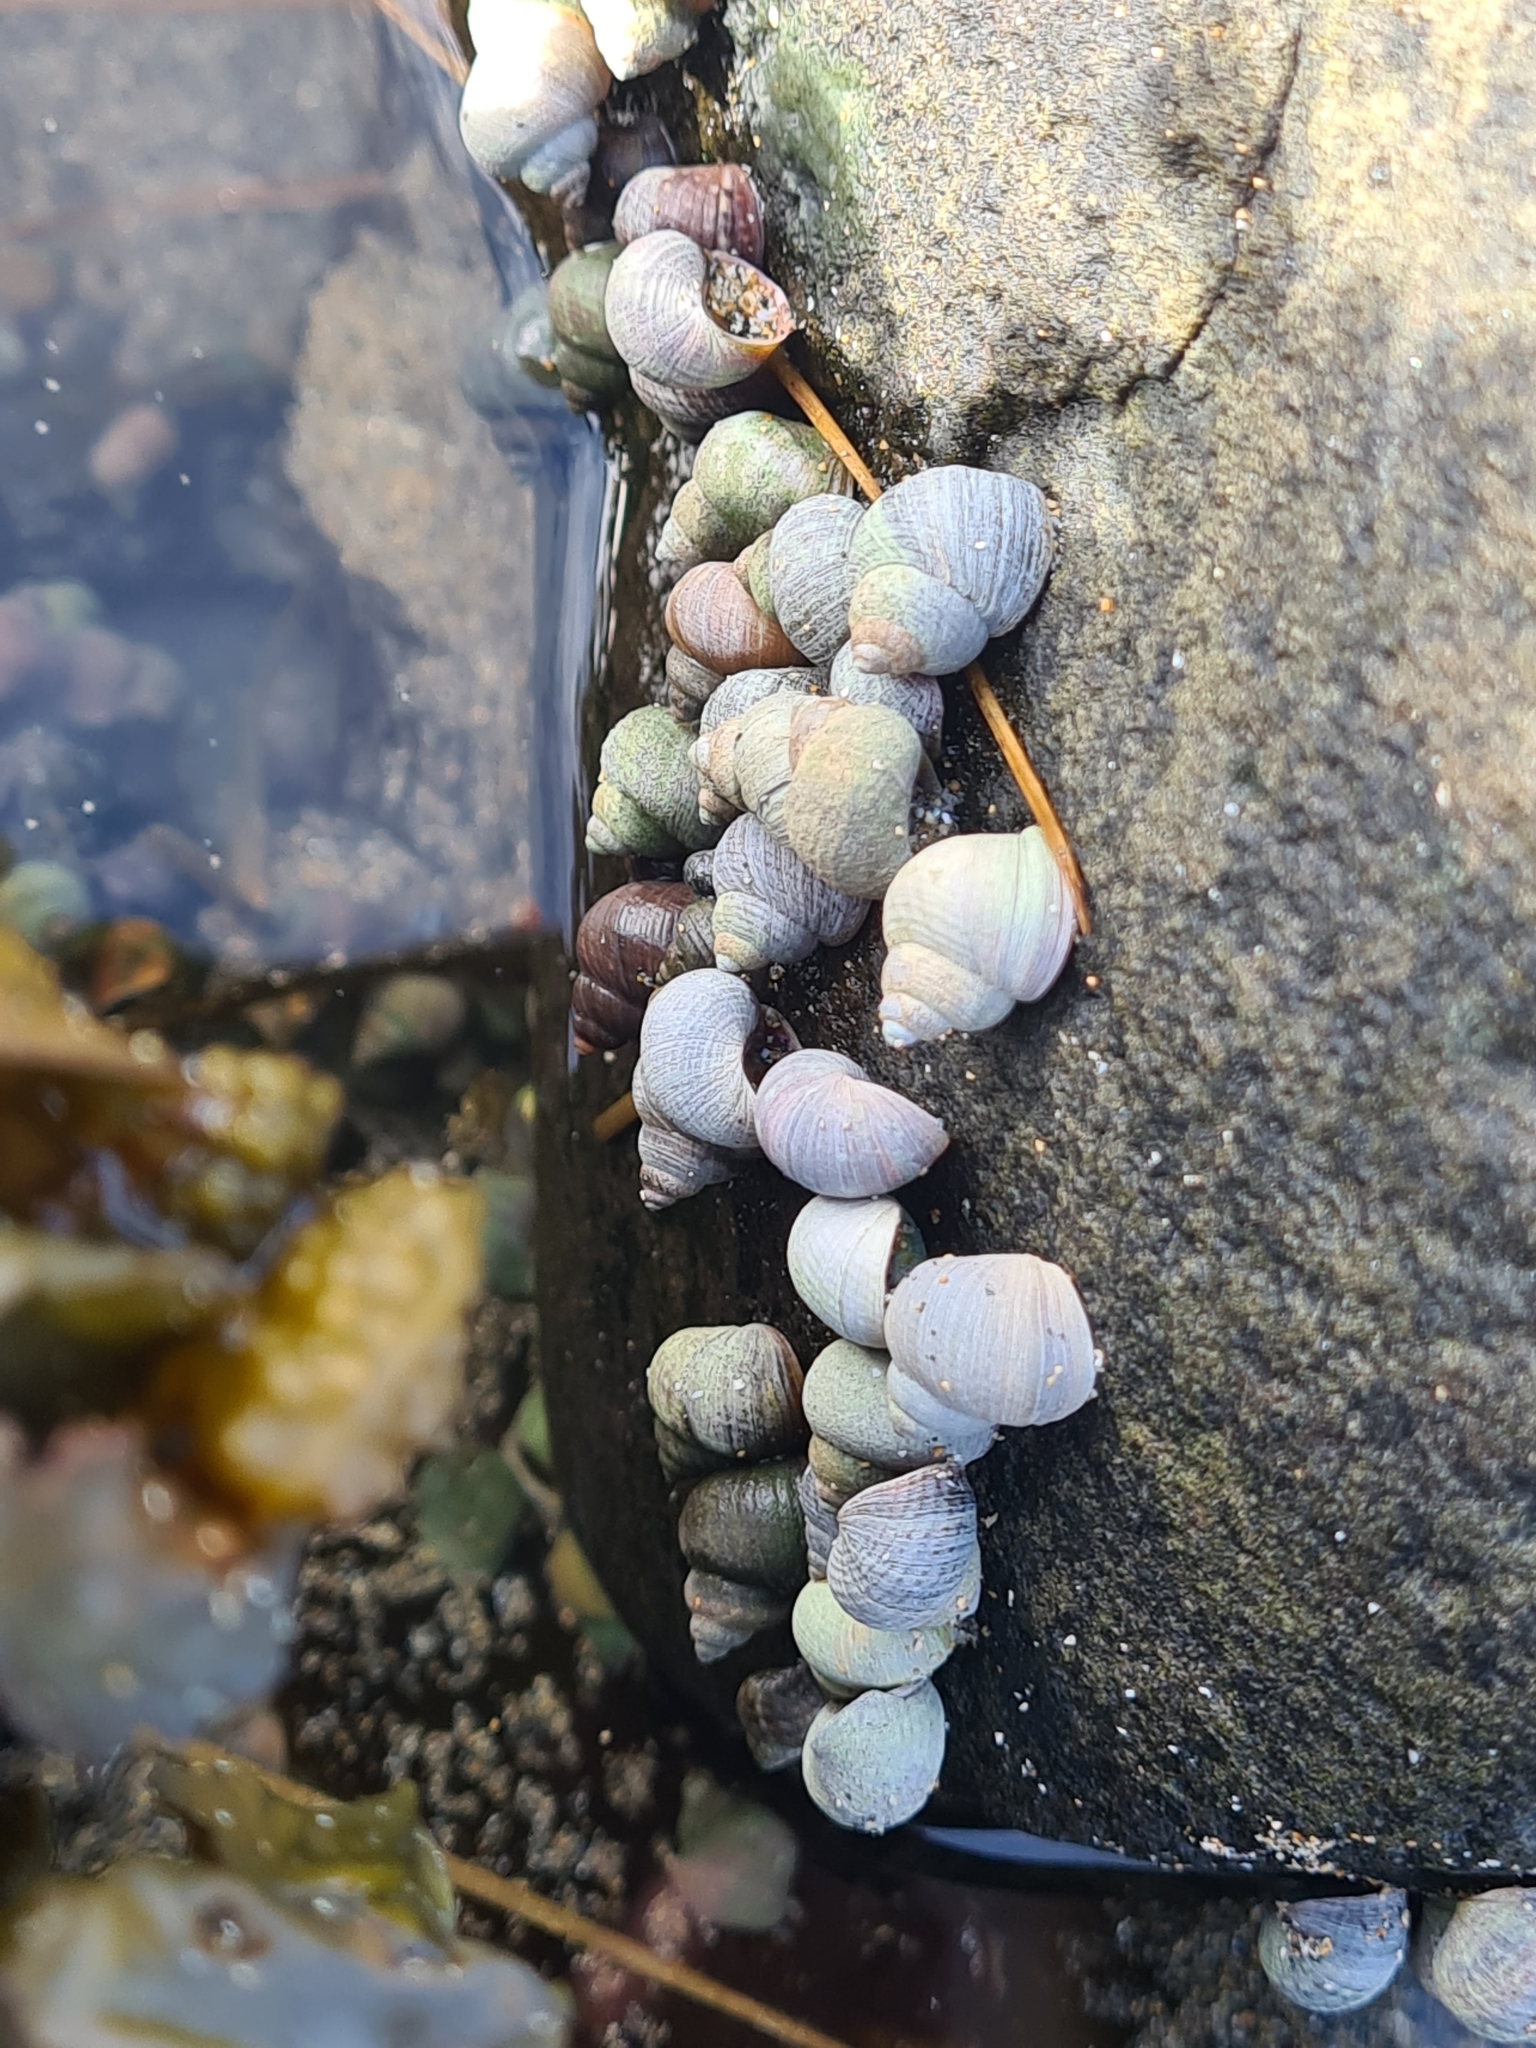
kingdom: Animalia
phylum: Mollusca
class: Gastropoda
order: Littorinimorpha
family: Littorinidae
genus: Littorina
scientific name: Littorina saxatilis
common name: Black-lined periwinkle
